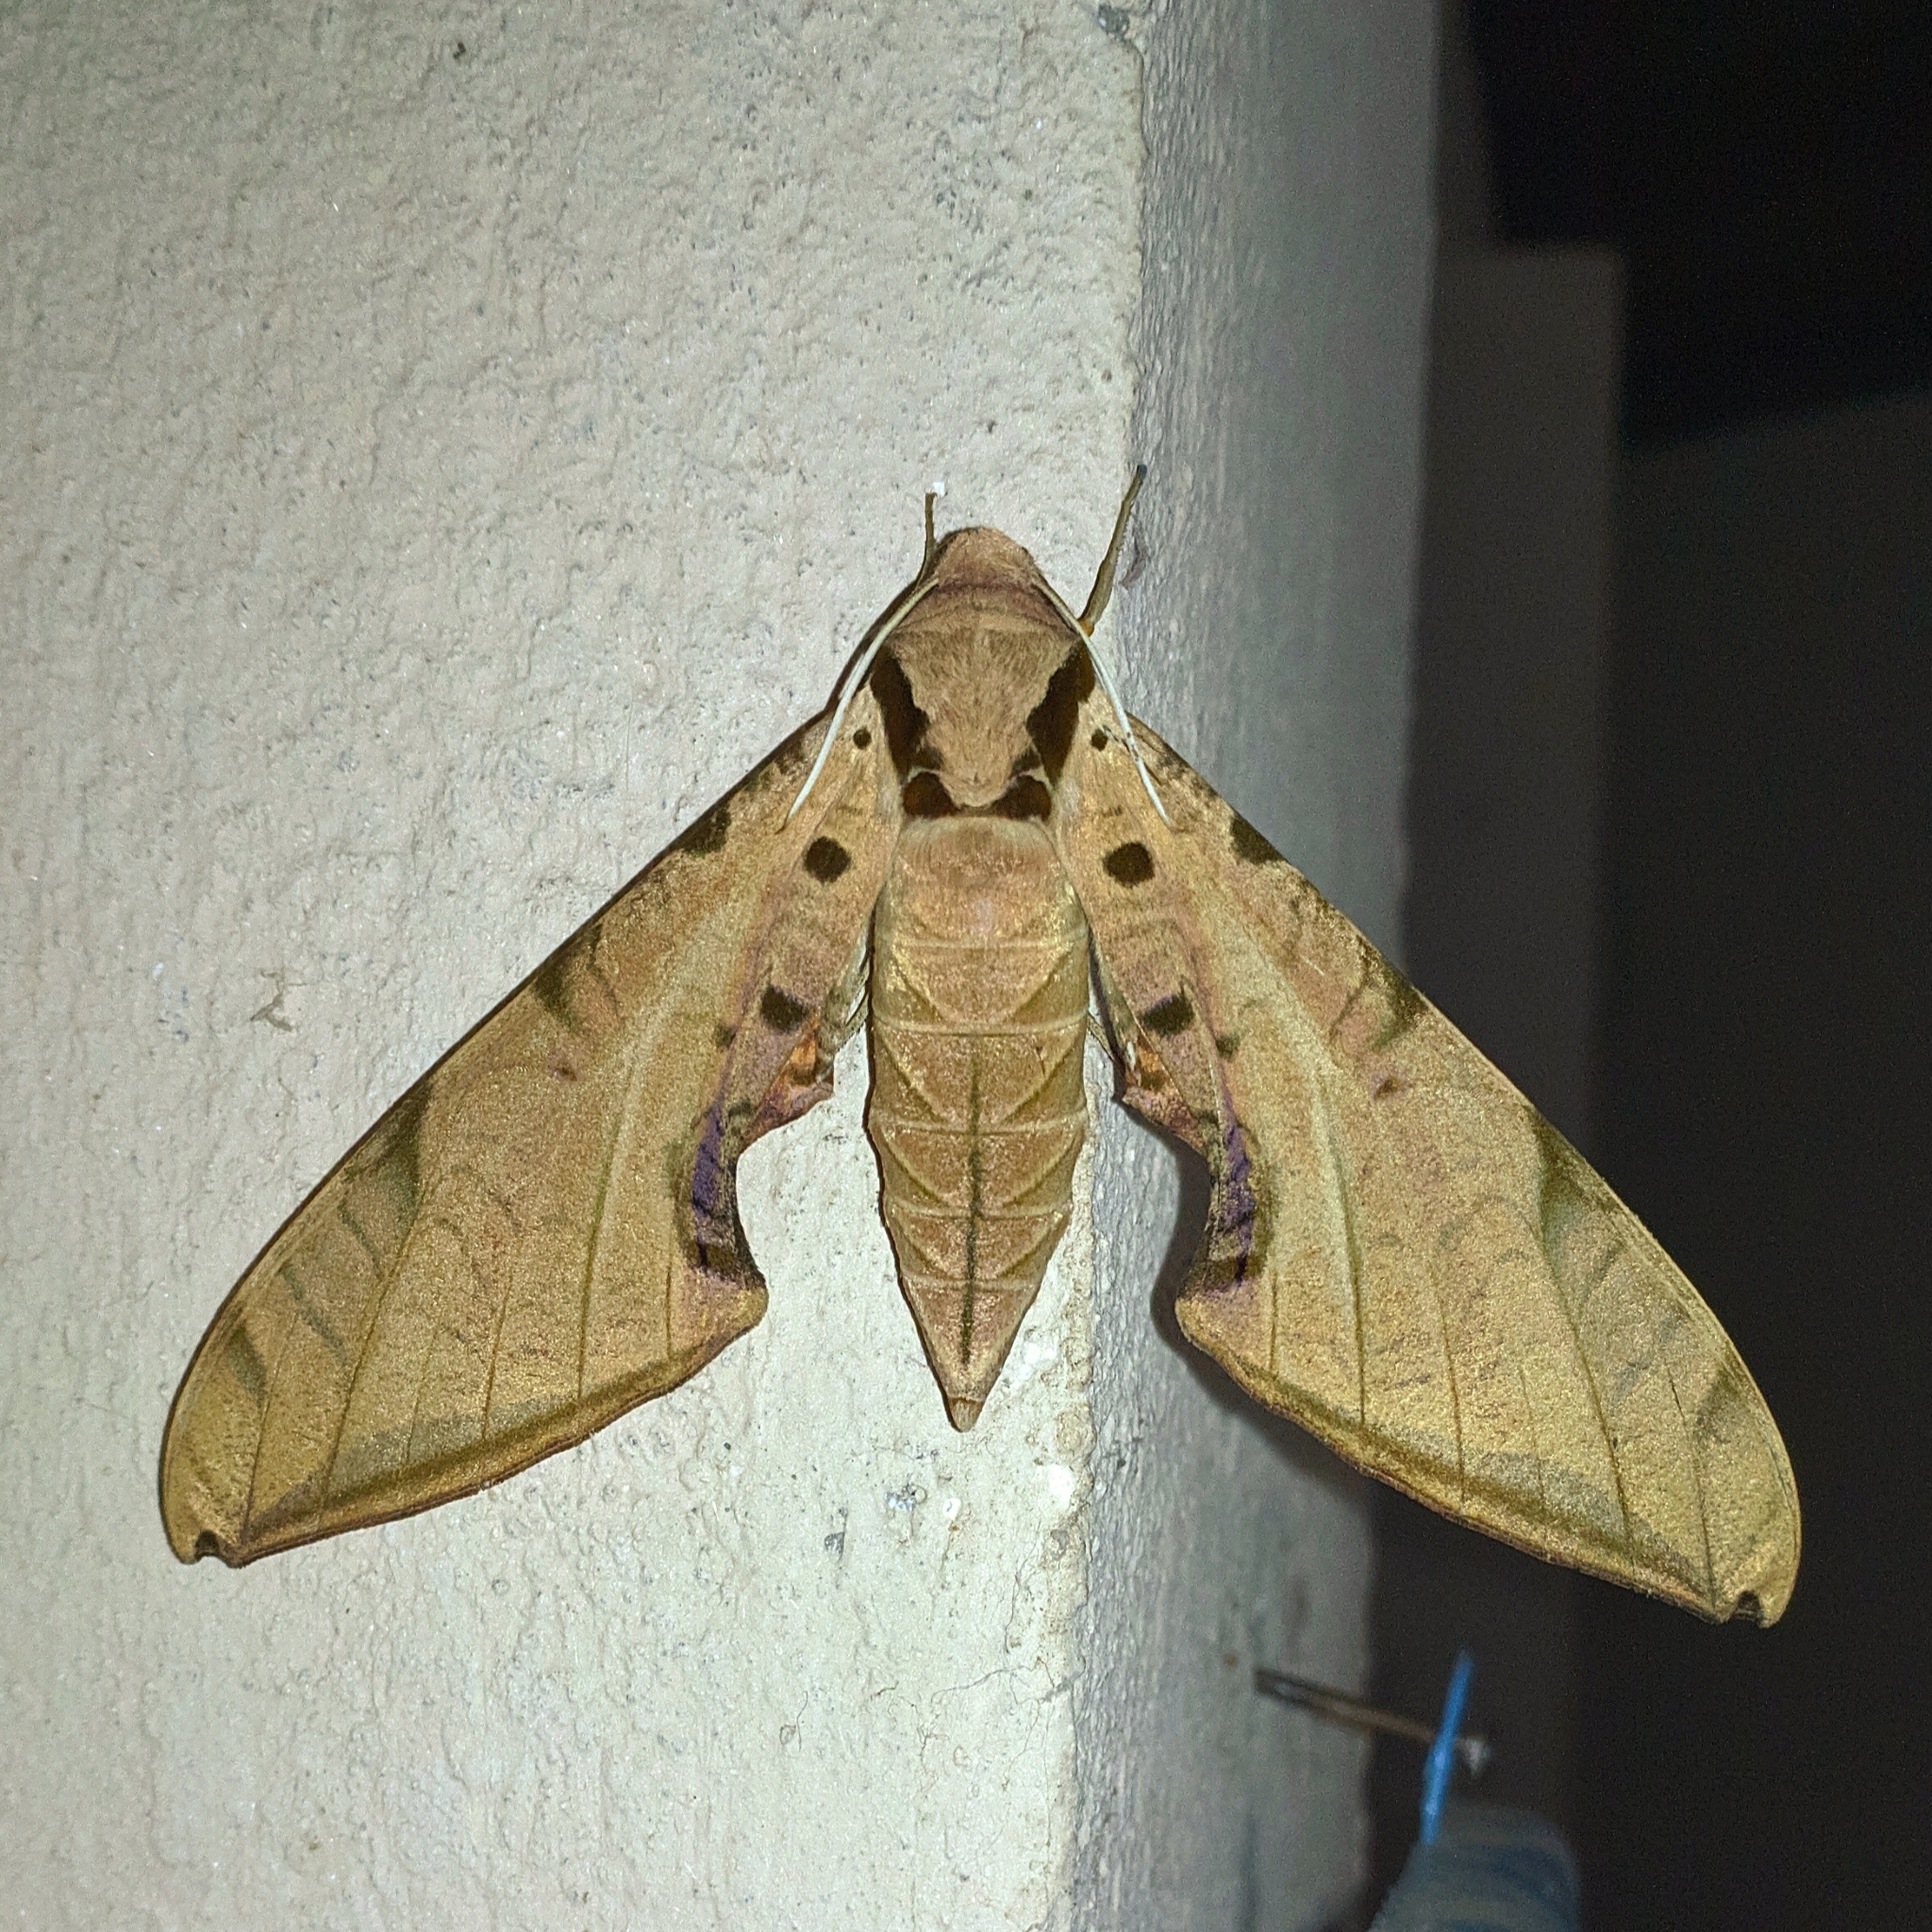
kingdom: Animalia
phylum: Arthropoda
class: Insecta
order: Lepidoptera
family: Sphingidae
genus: Protambulyx
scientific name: Protambulyx strigilis
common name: Streaked sphinx
